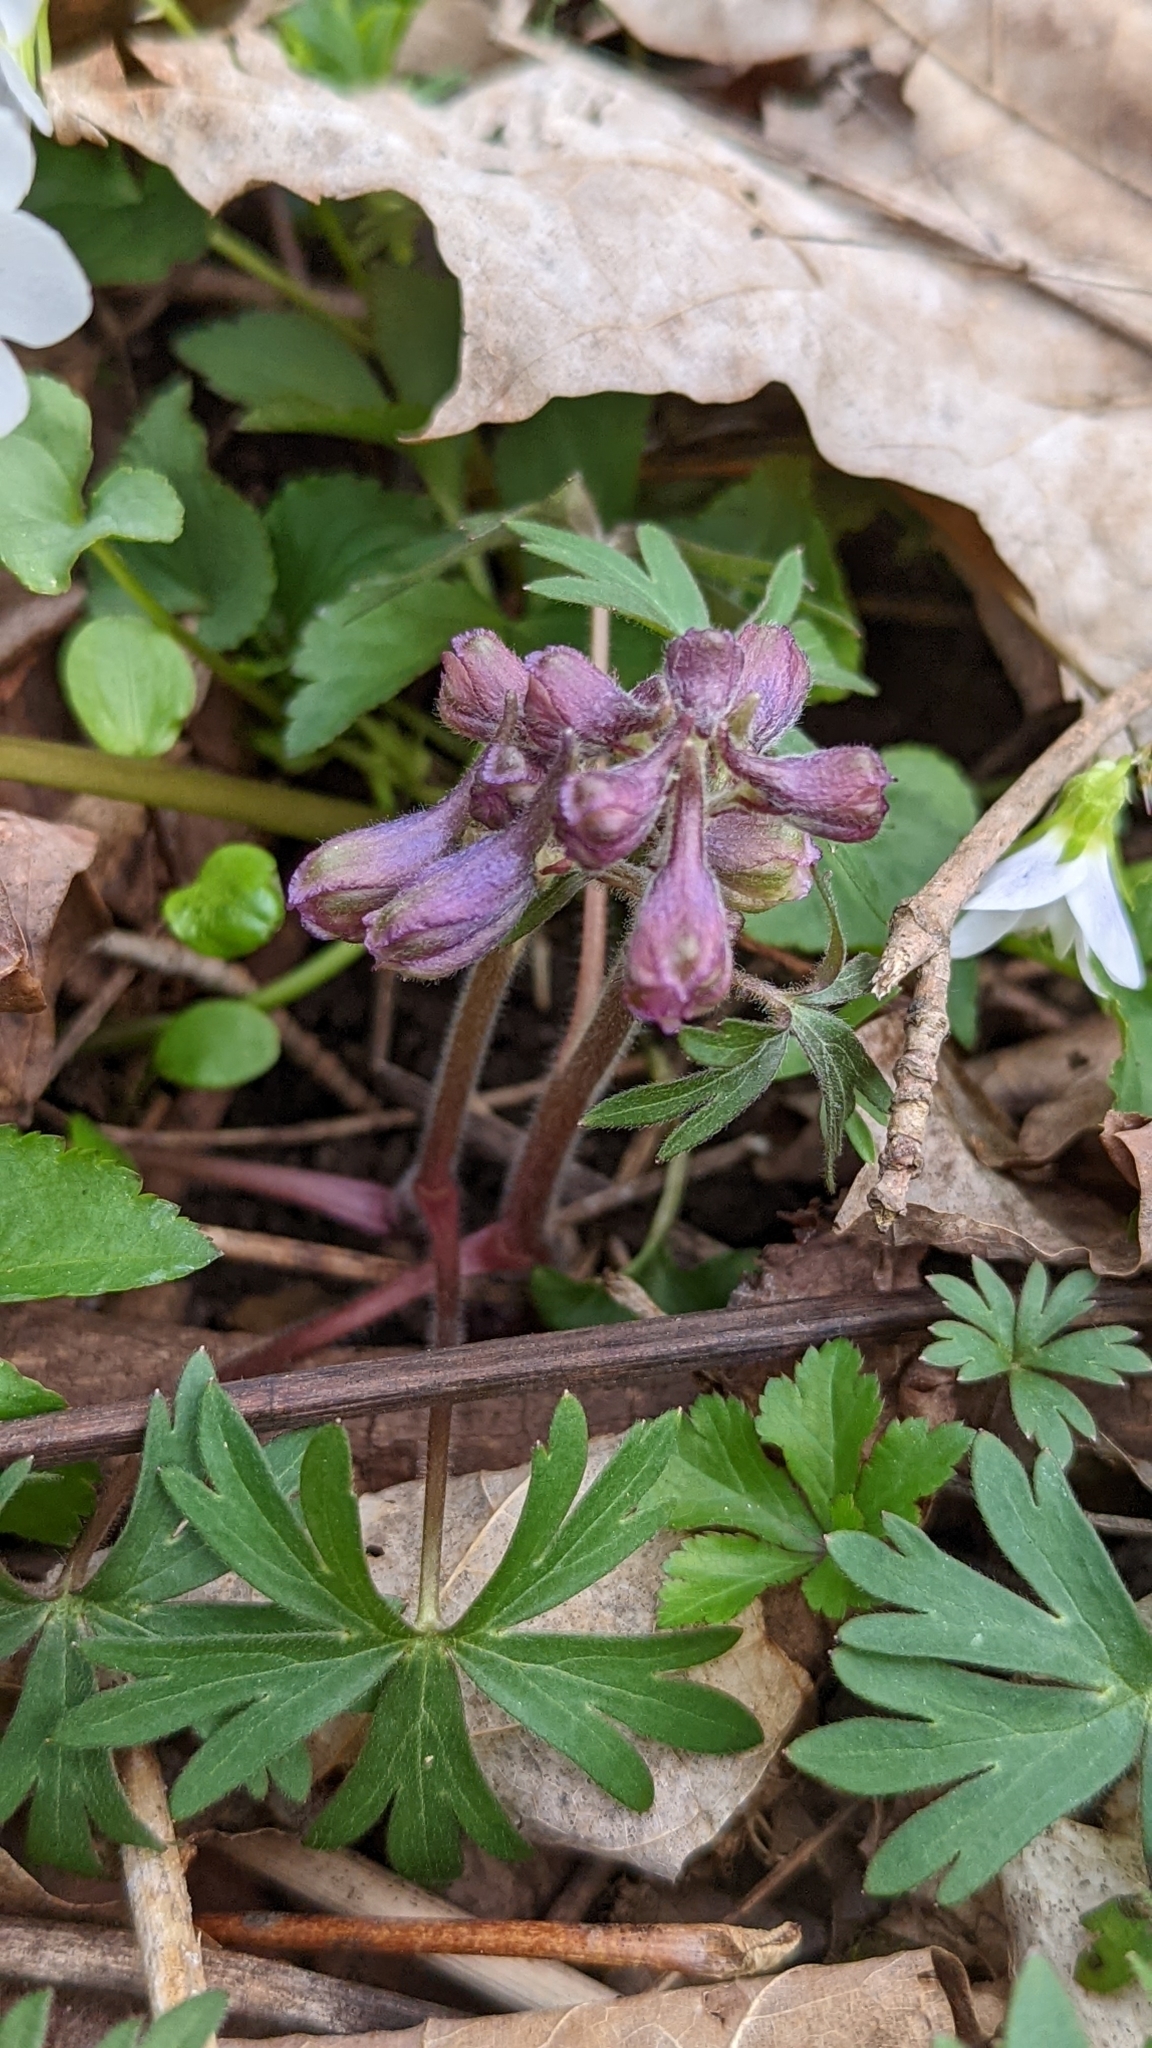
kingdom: Plantae
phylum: Tracheophyta
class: Magnoliopsida
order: Ranunculales
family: Ranunculaceae
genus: Delphinium
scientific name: Delphinium tricorne
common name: Dwarf larkspur
